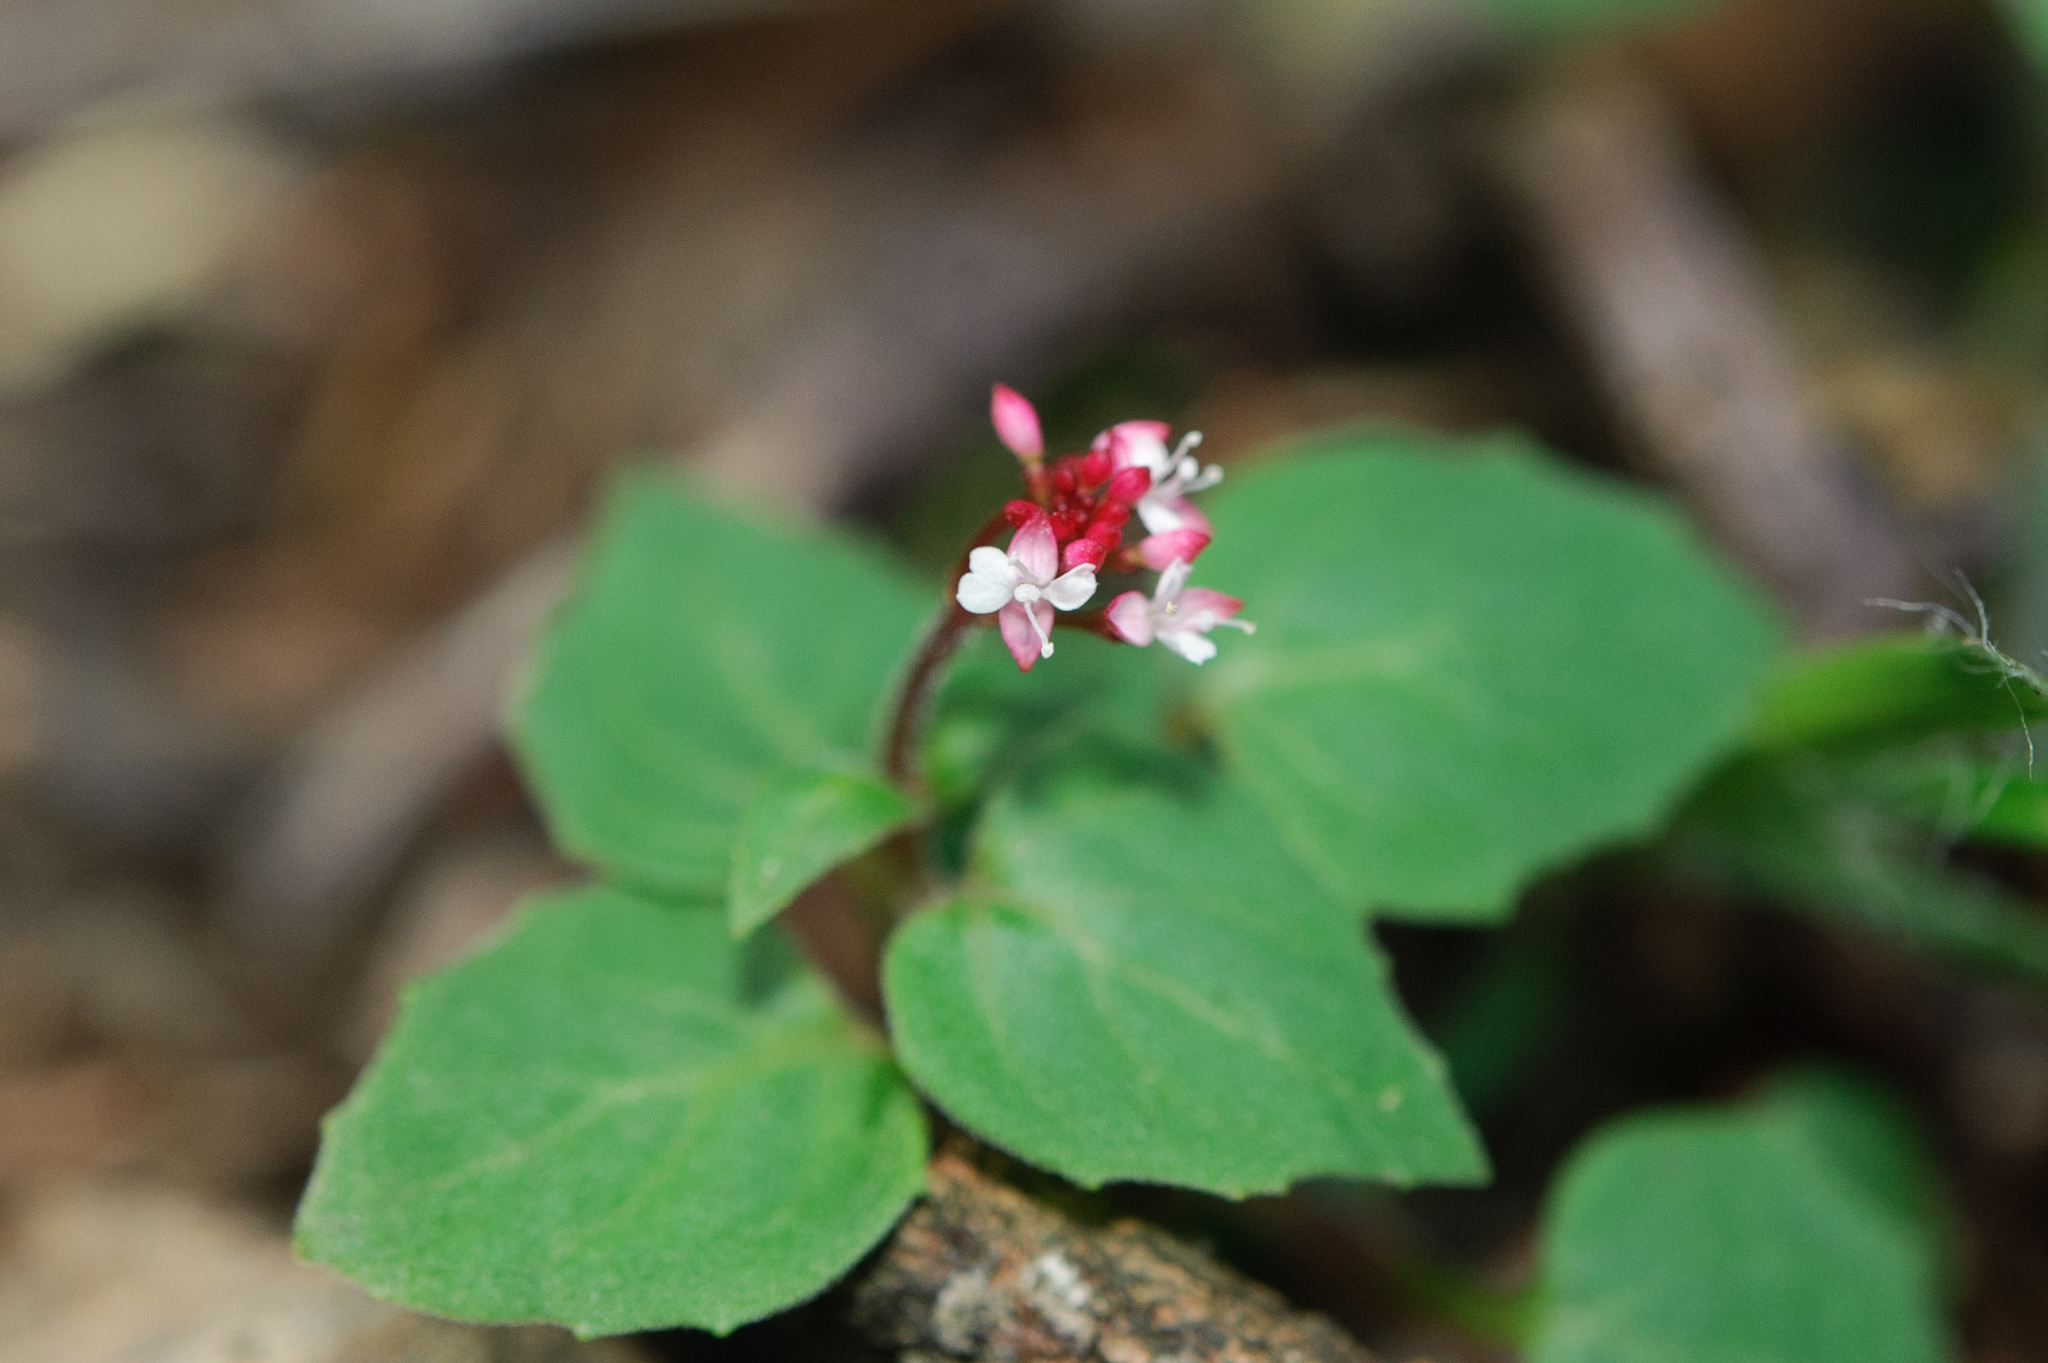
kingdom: Plantae
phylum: Tracheophyta
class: Magnoliopsida
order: Myrtales
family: Onagraceae
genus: Circaea
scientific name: Circaea alpina
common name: Alpine enchanter's-nightshade
